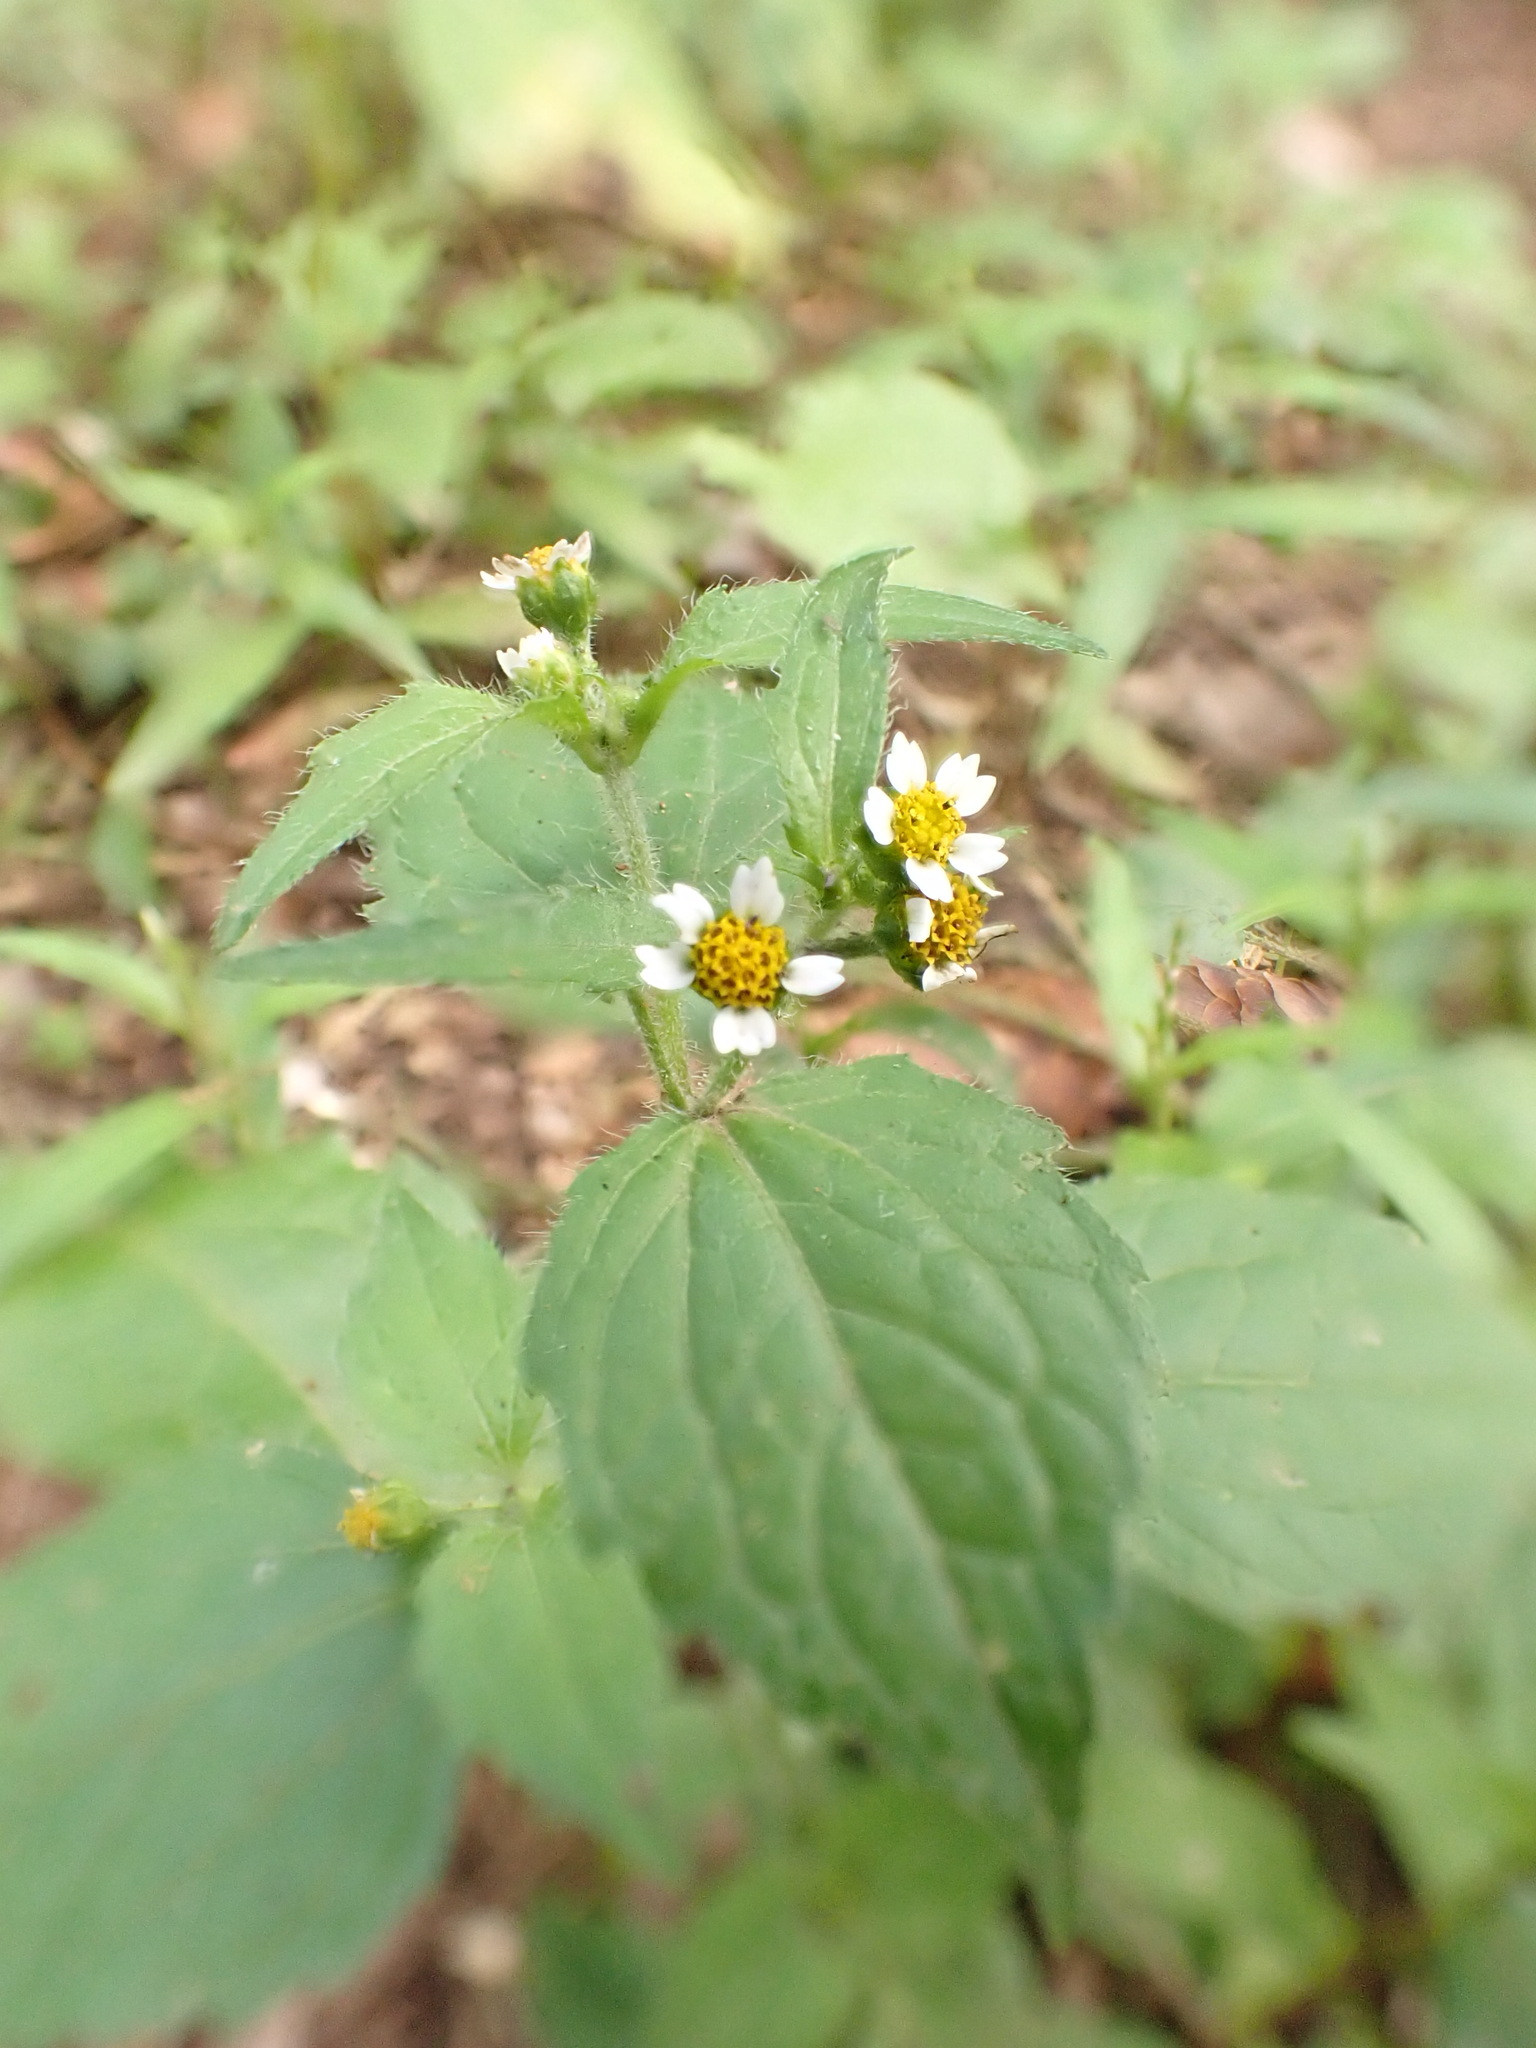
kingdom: Plantae
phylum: Tracheophyta
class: Magnoliopsida
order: Asterales
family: Asteraceae
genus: Galinsoga
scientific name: Galinsoga quadriradiata
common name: Shaggy soldier
